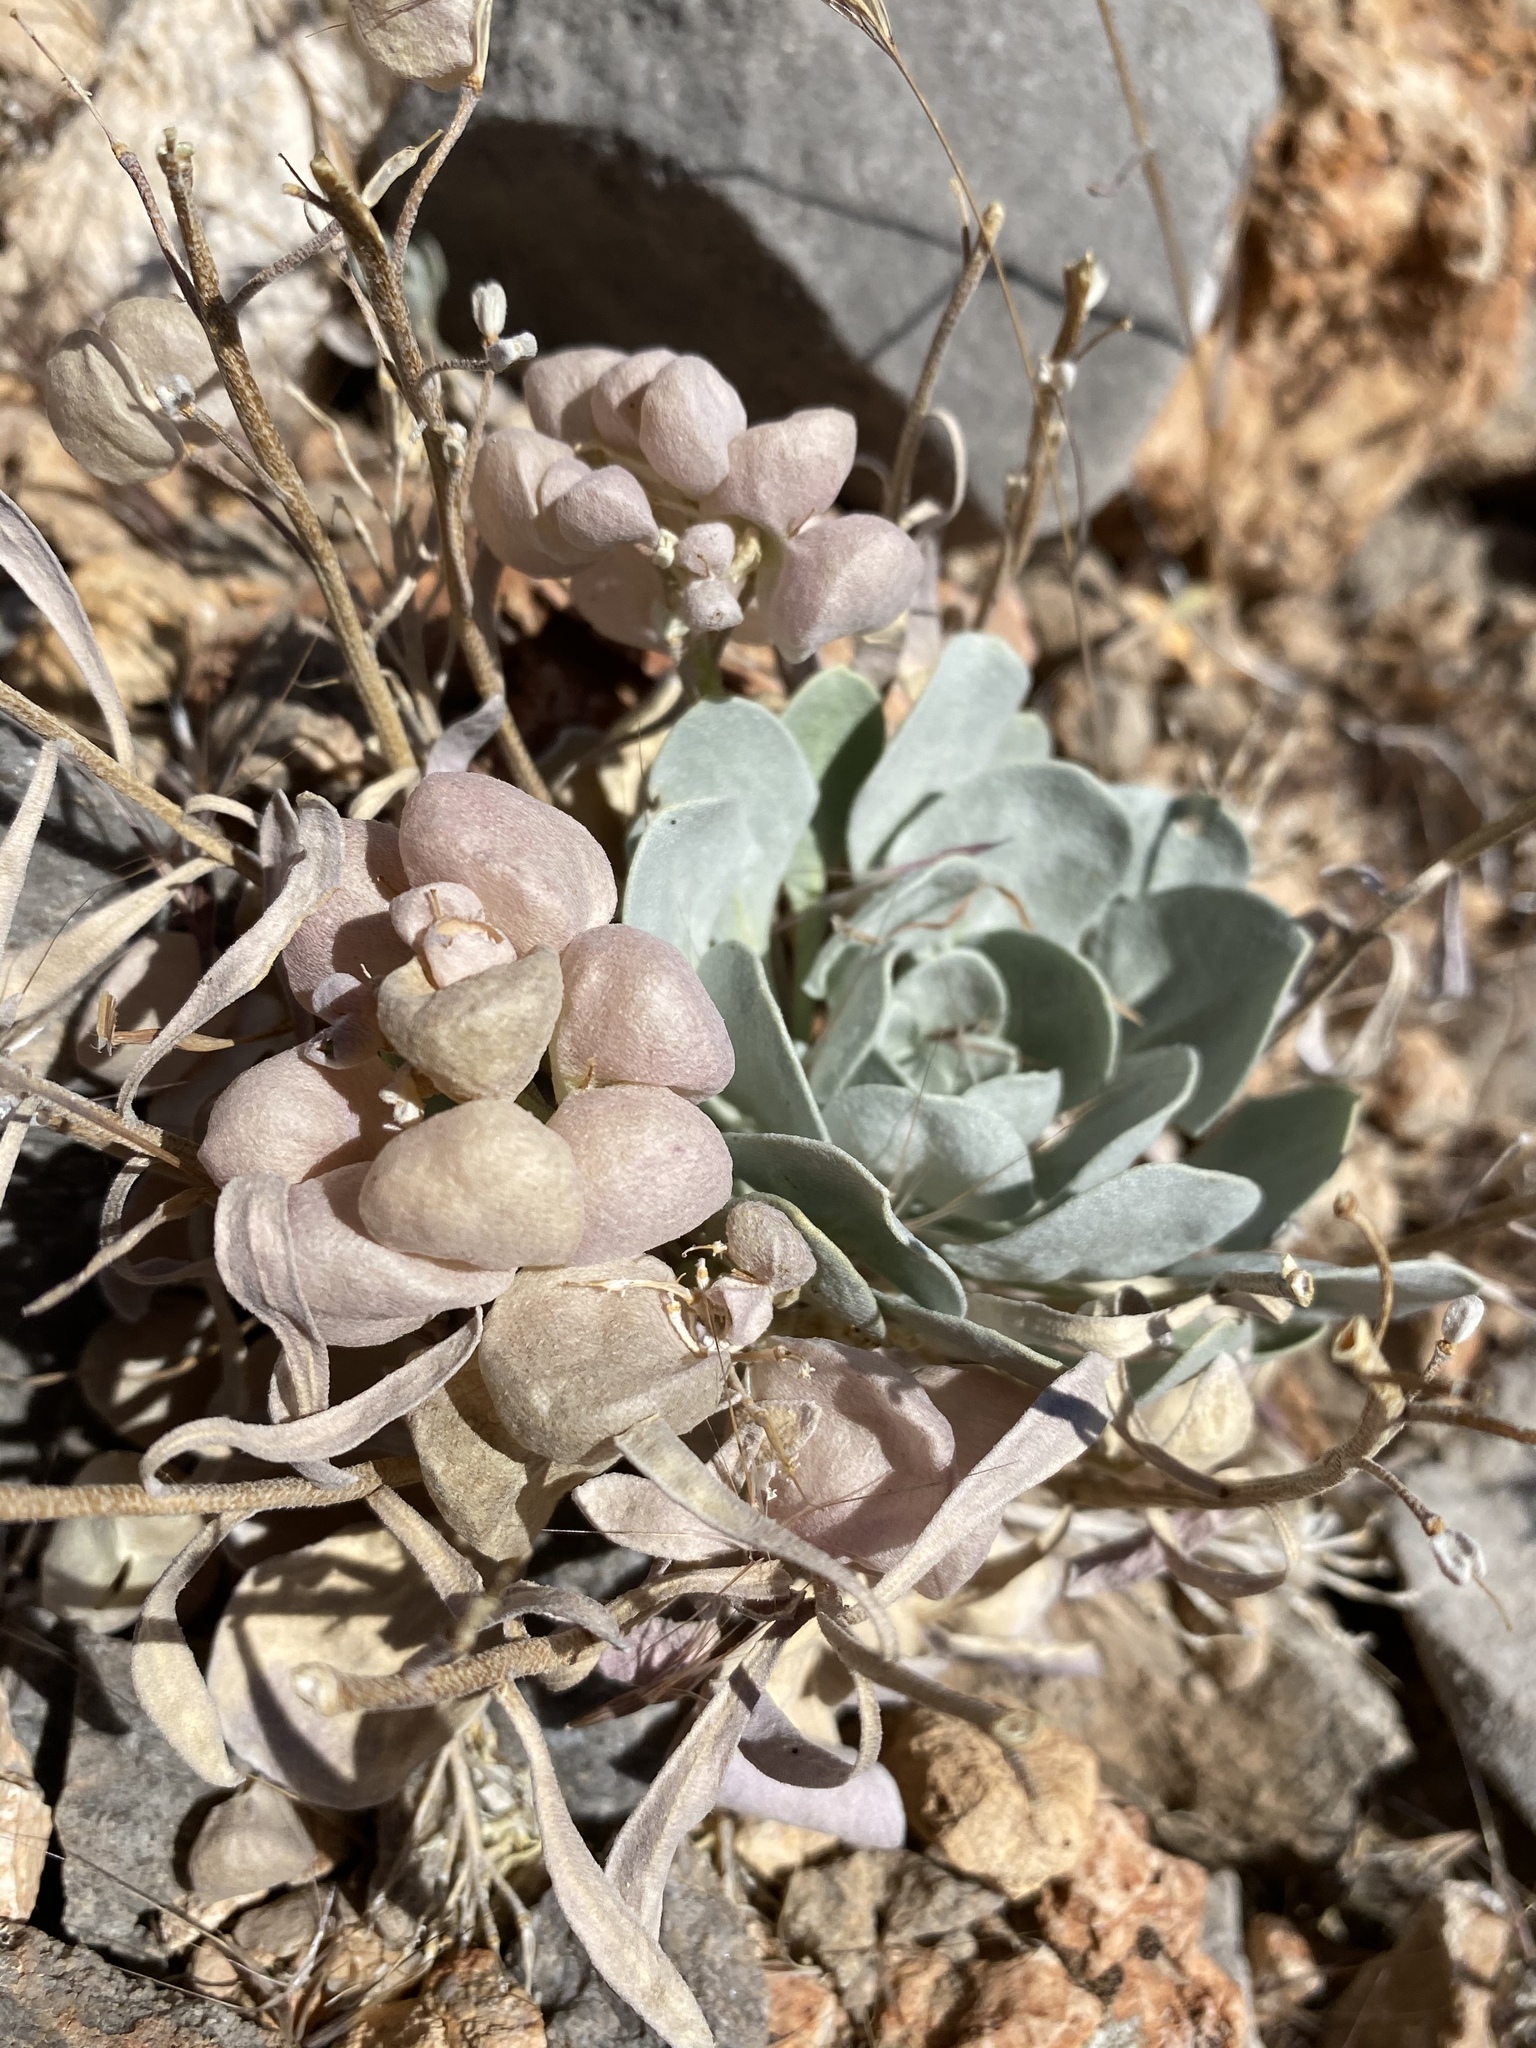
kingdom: Plantae
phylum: Tracheophyta
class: Magnoliopsida
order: Brassicales
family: Brassicaceae
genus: Physaria
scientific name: Physaria chambersii
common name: Chamber's twinpod
